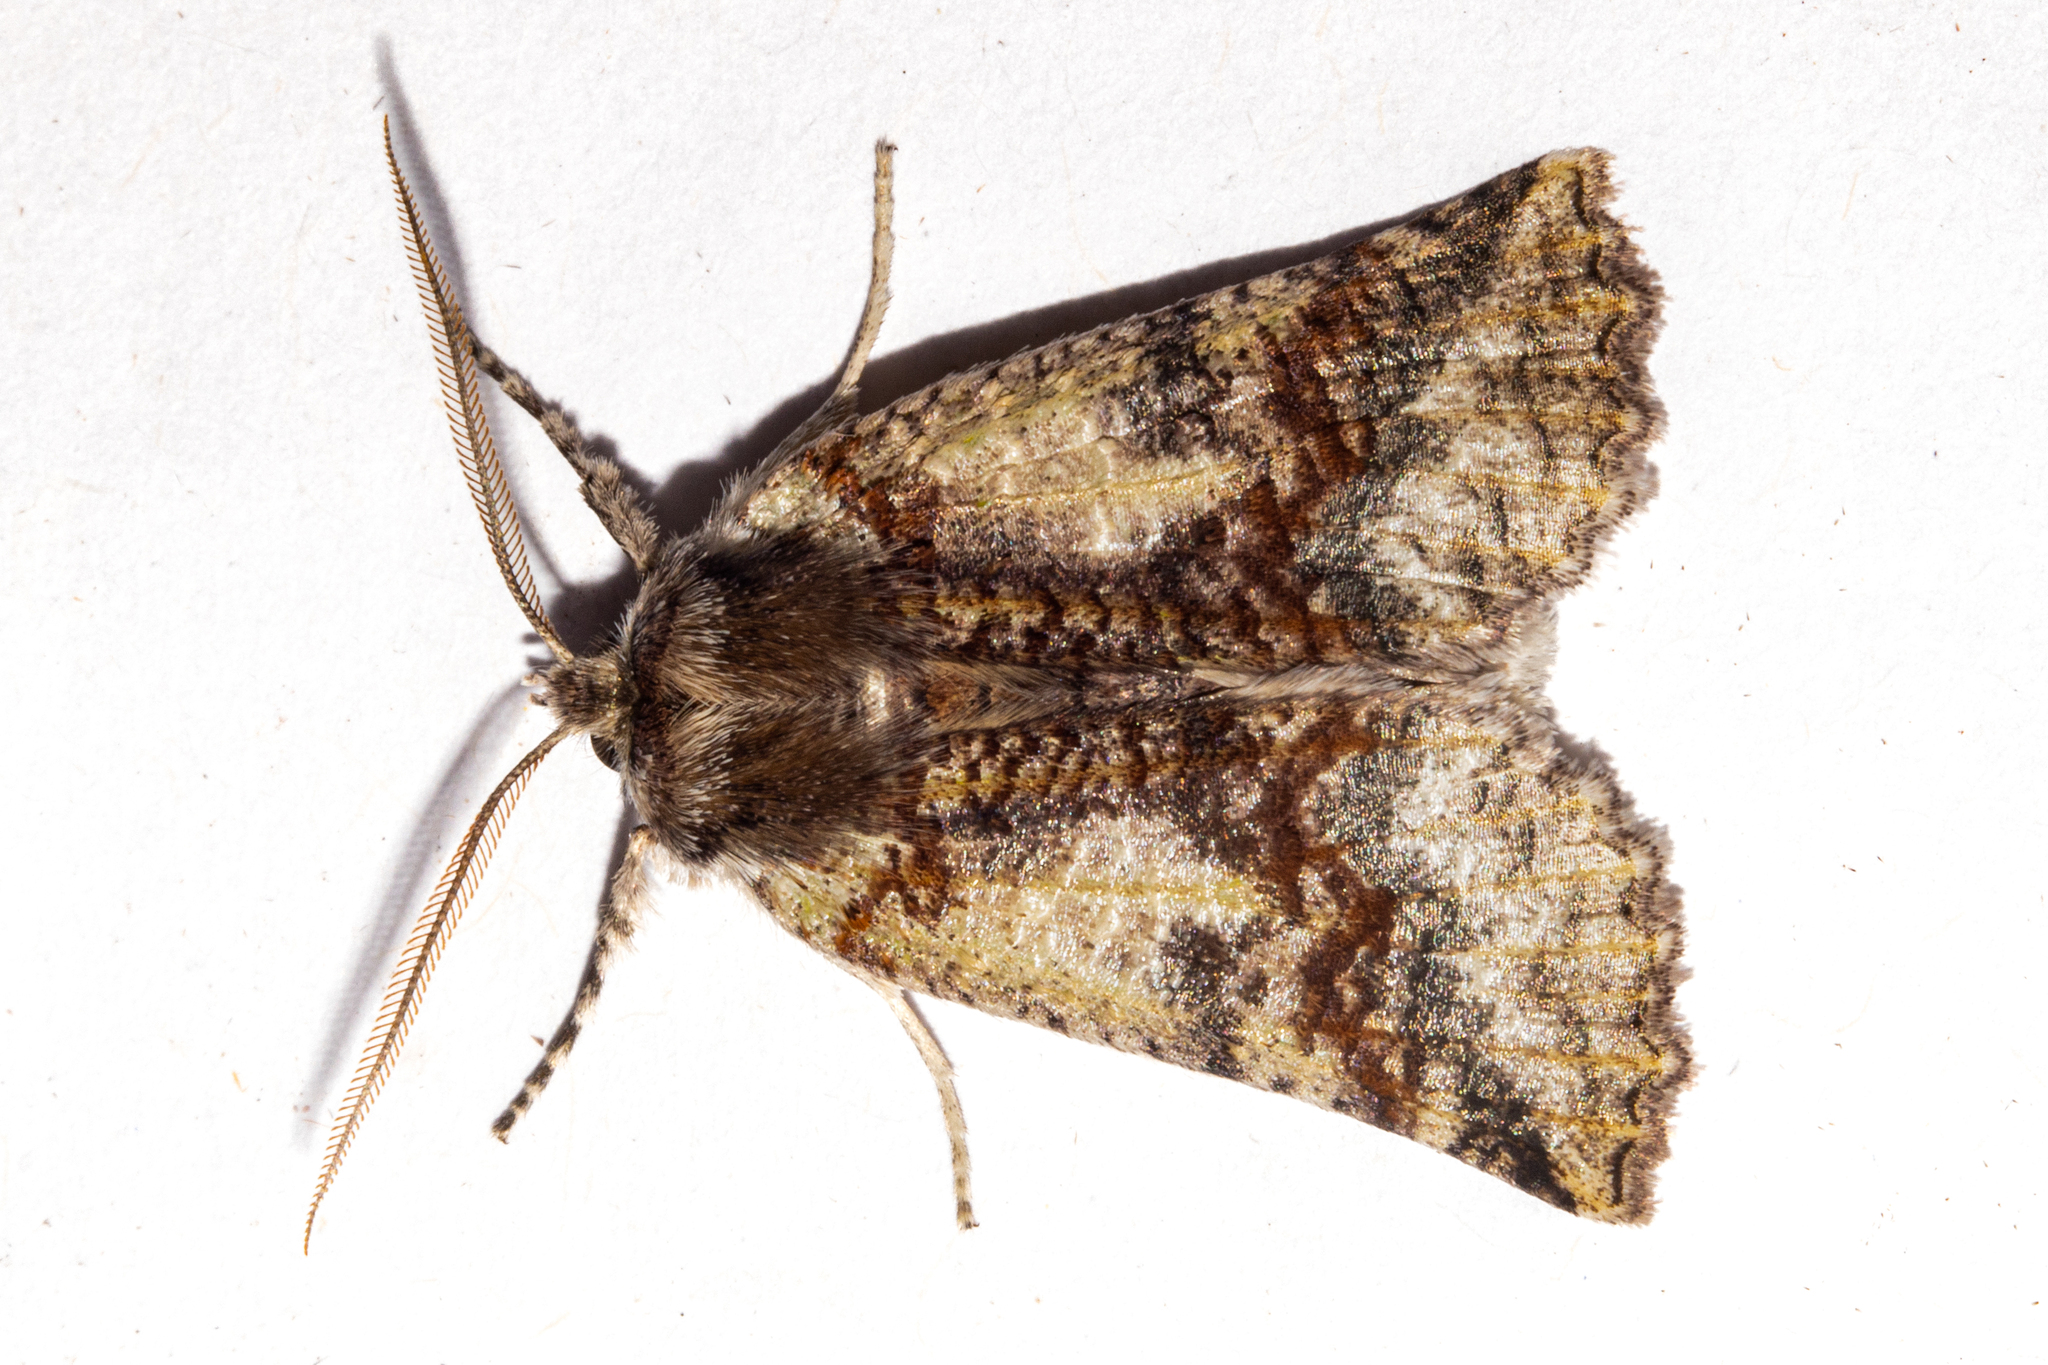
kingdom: Animalia
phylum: Arthropoda
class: Insecta
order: Lepidoptera
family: Geometridae
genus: Declana
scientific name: Declana floccosa
